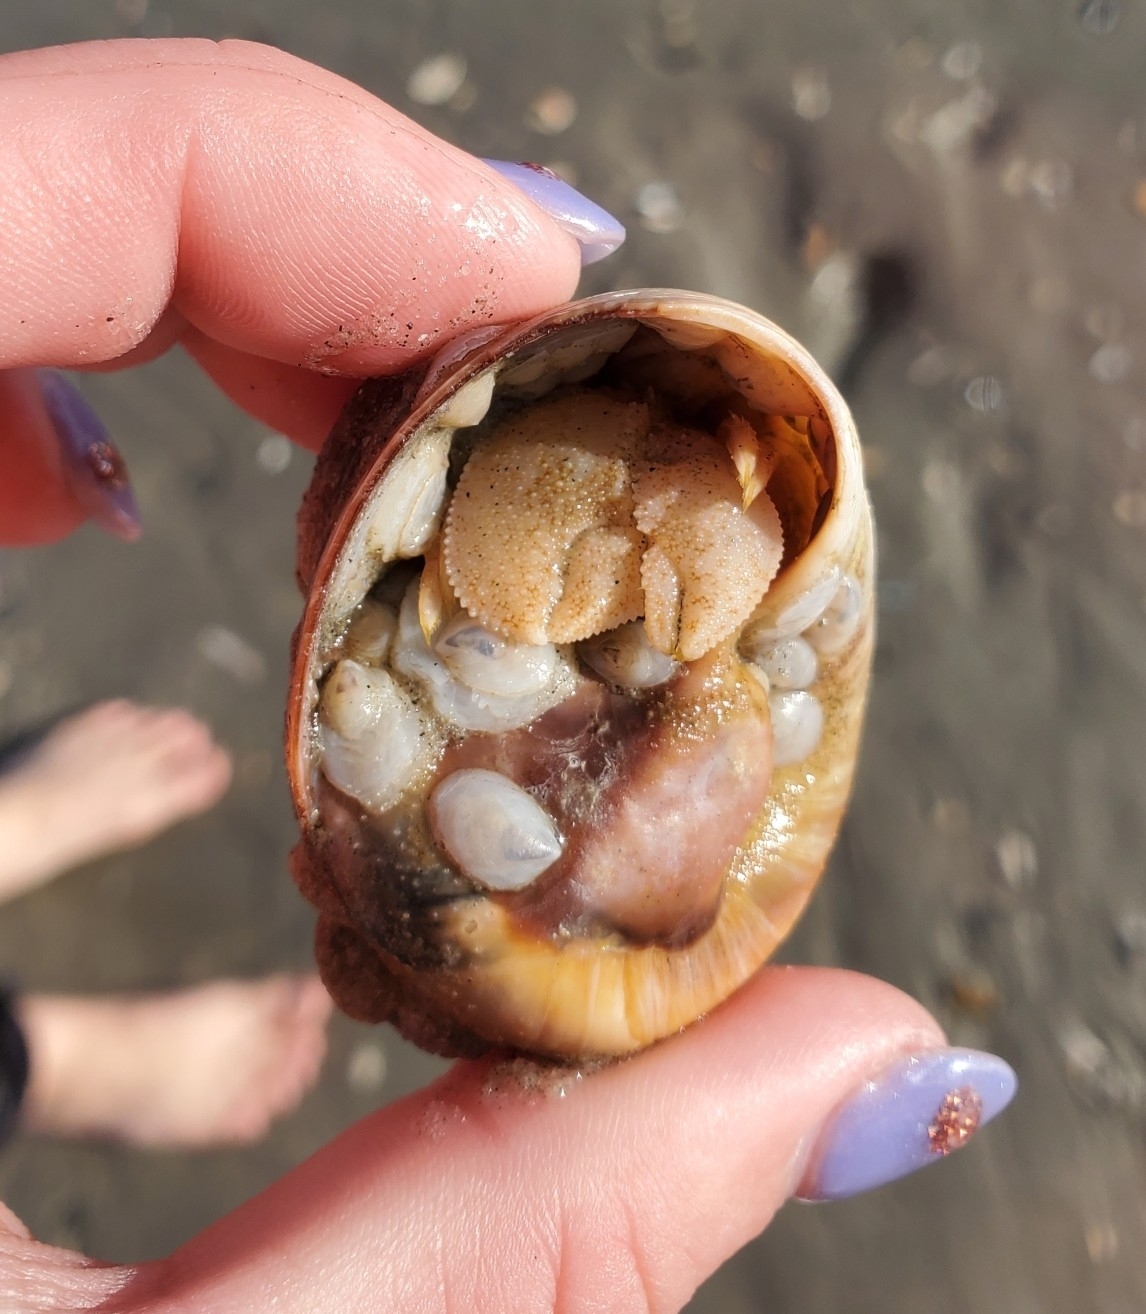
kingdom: Animalia
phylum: Arthropoda
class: Malacostraca
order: Decapoda
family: Paguridae
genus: Pagurus
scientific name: Pagurus pollicaris
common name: Flatclaw hermit
